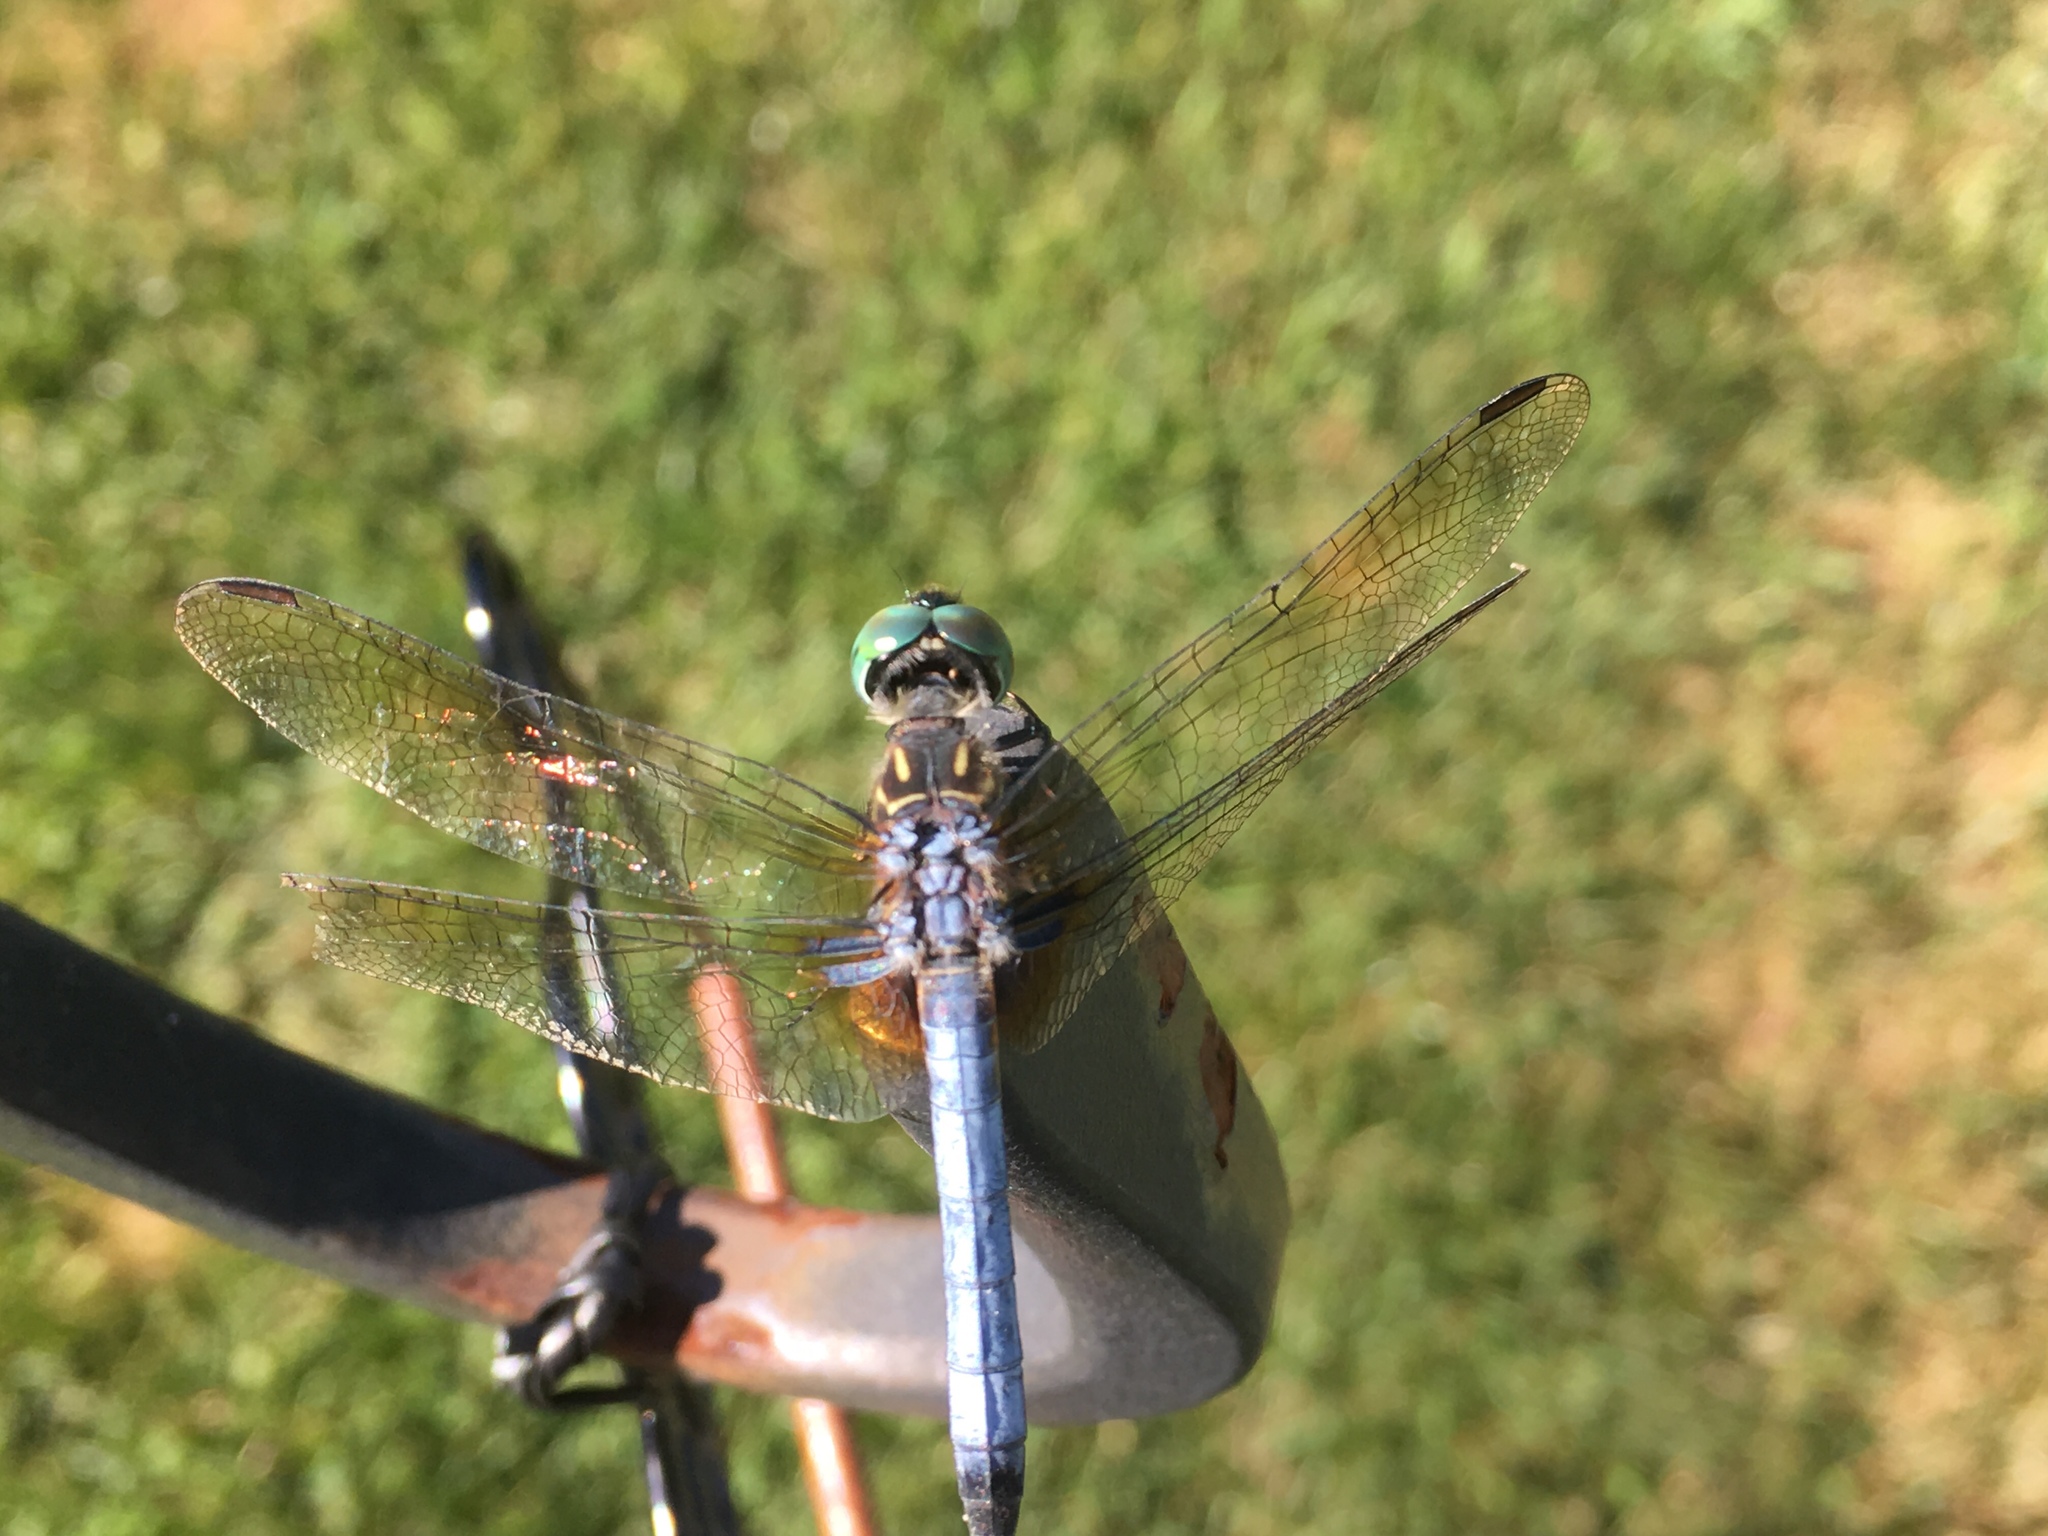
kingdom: Animalia
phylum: Arthropoda
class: Insecta
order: Odonata
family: Libellulidae
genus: Pachydiplax
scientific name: Pachydiplax longipennis
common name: Blue dasher
